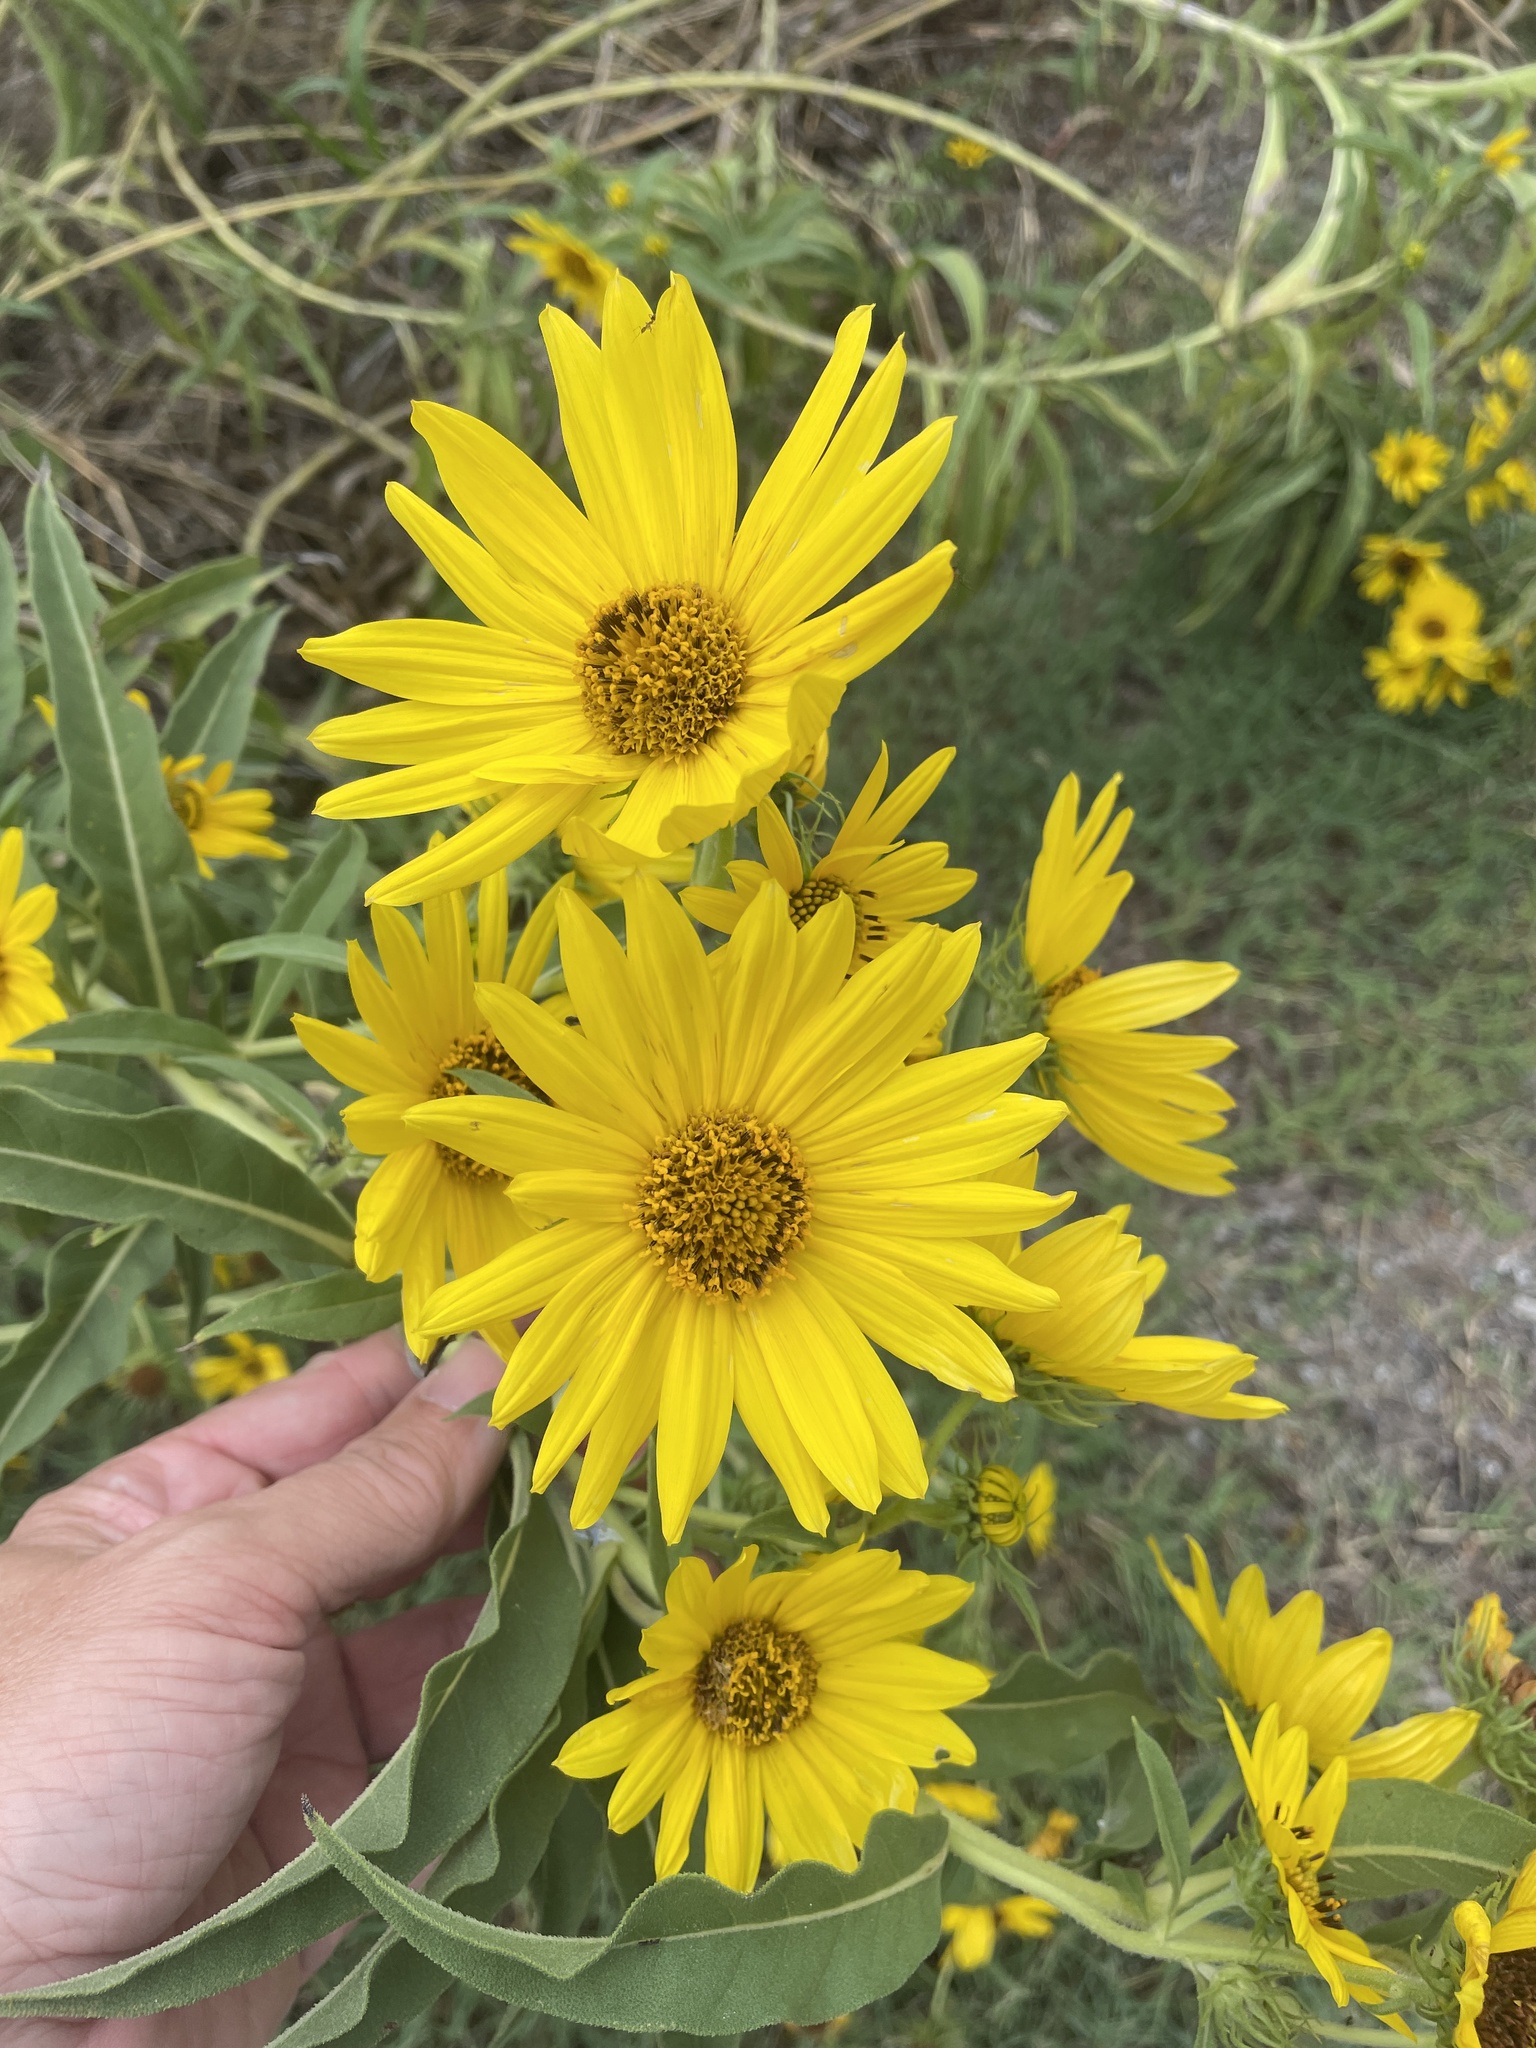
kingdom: Plantae
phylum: Tracheophyta
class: Magnoliopsida
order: Asterales
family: Asteraceae
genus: Helianthus
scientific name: Helianthus maximiliani
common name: Maximilian's sunflower
